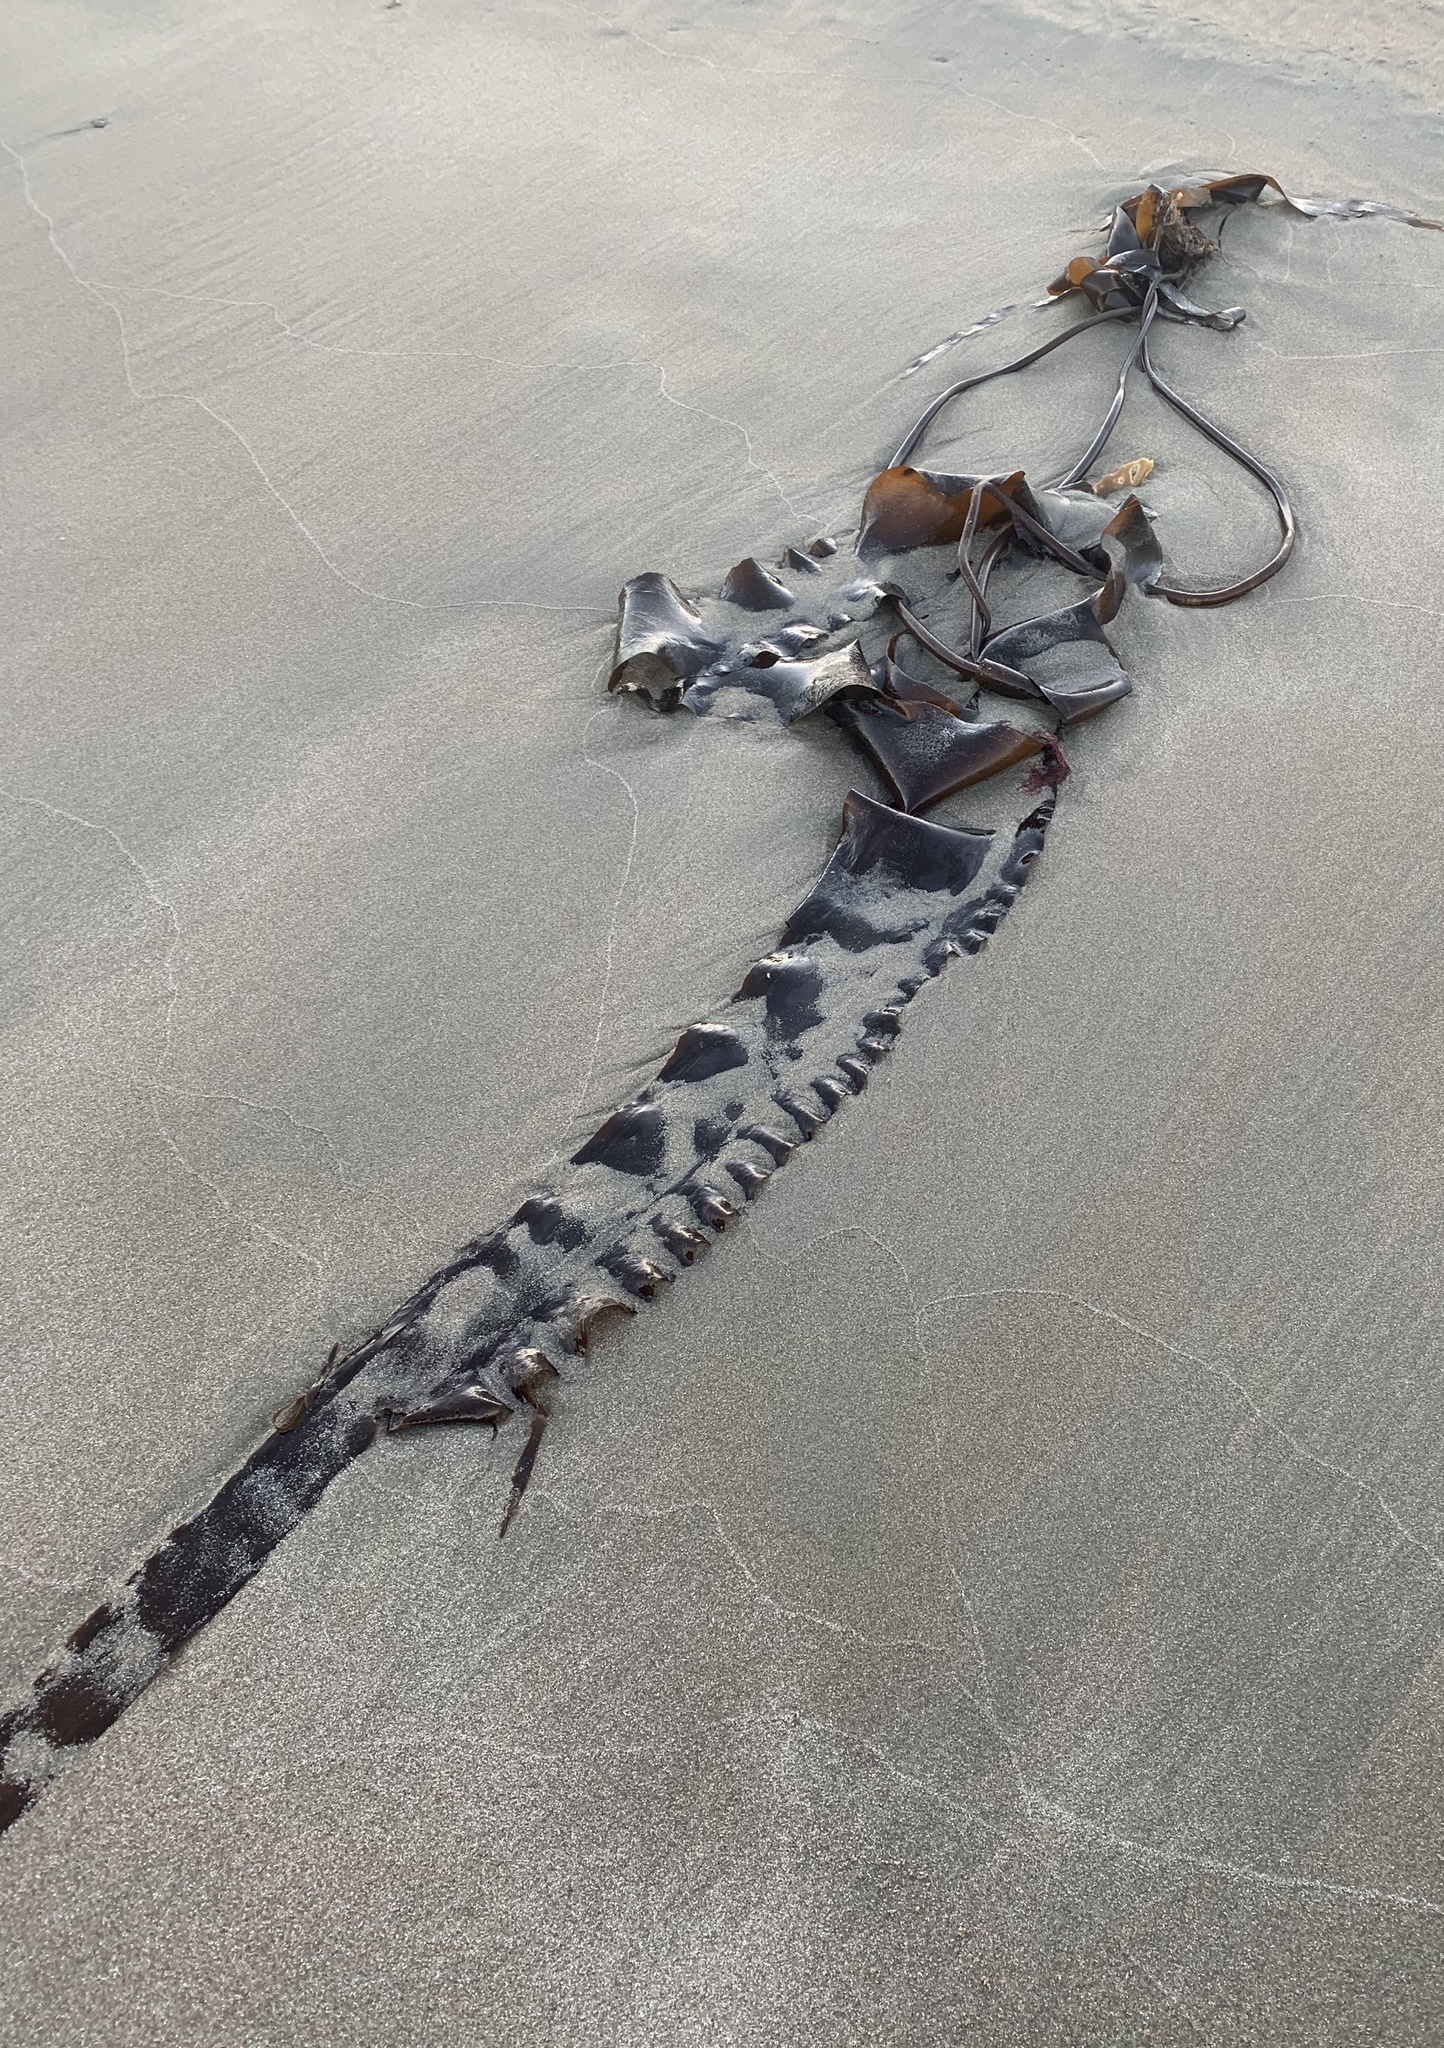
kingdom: Chromista
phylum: Ochrophyta
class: Phaeophyceae
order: Laminariales
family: Laminariaceae
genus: Saccharina
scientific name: Saccharina longicruris
